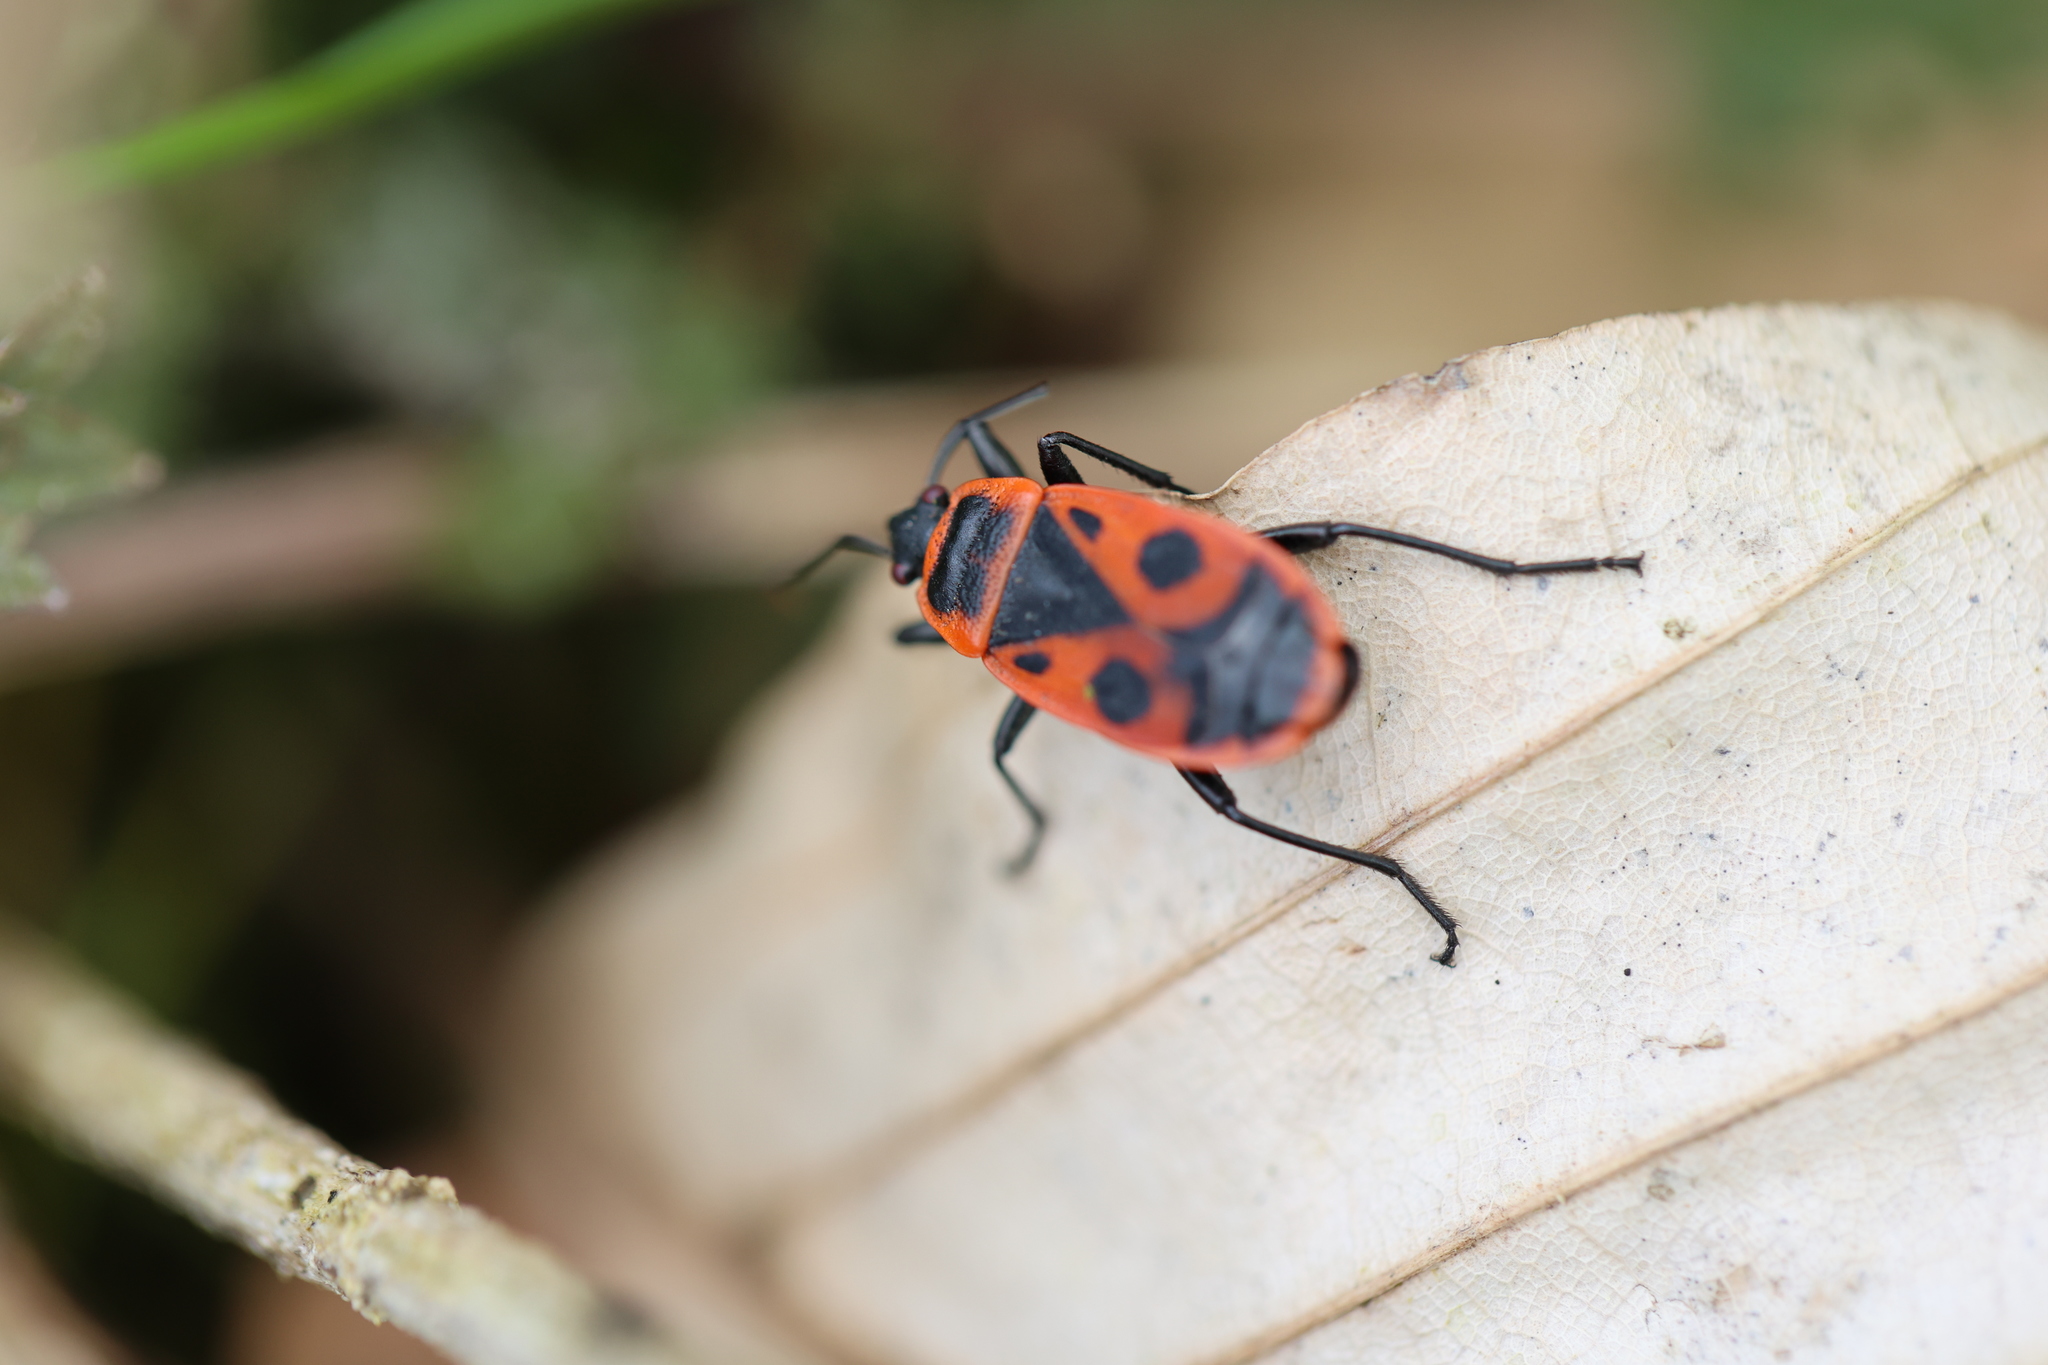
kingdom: Animalia
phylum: Arthropoda
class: Insecta
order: Hemiptera
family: Pyrrhocoridae
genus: Pyrrhocoris
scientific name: Pyrrhocoris apterus
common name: Firebug
